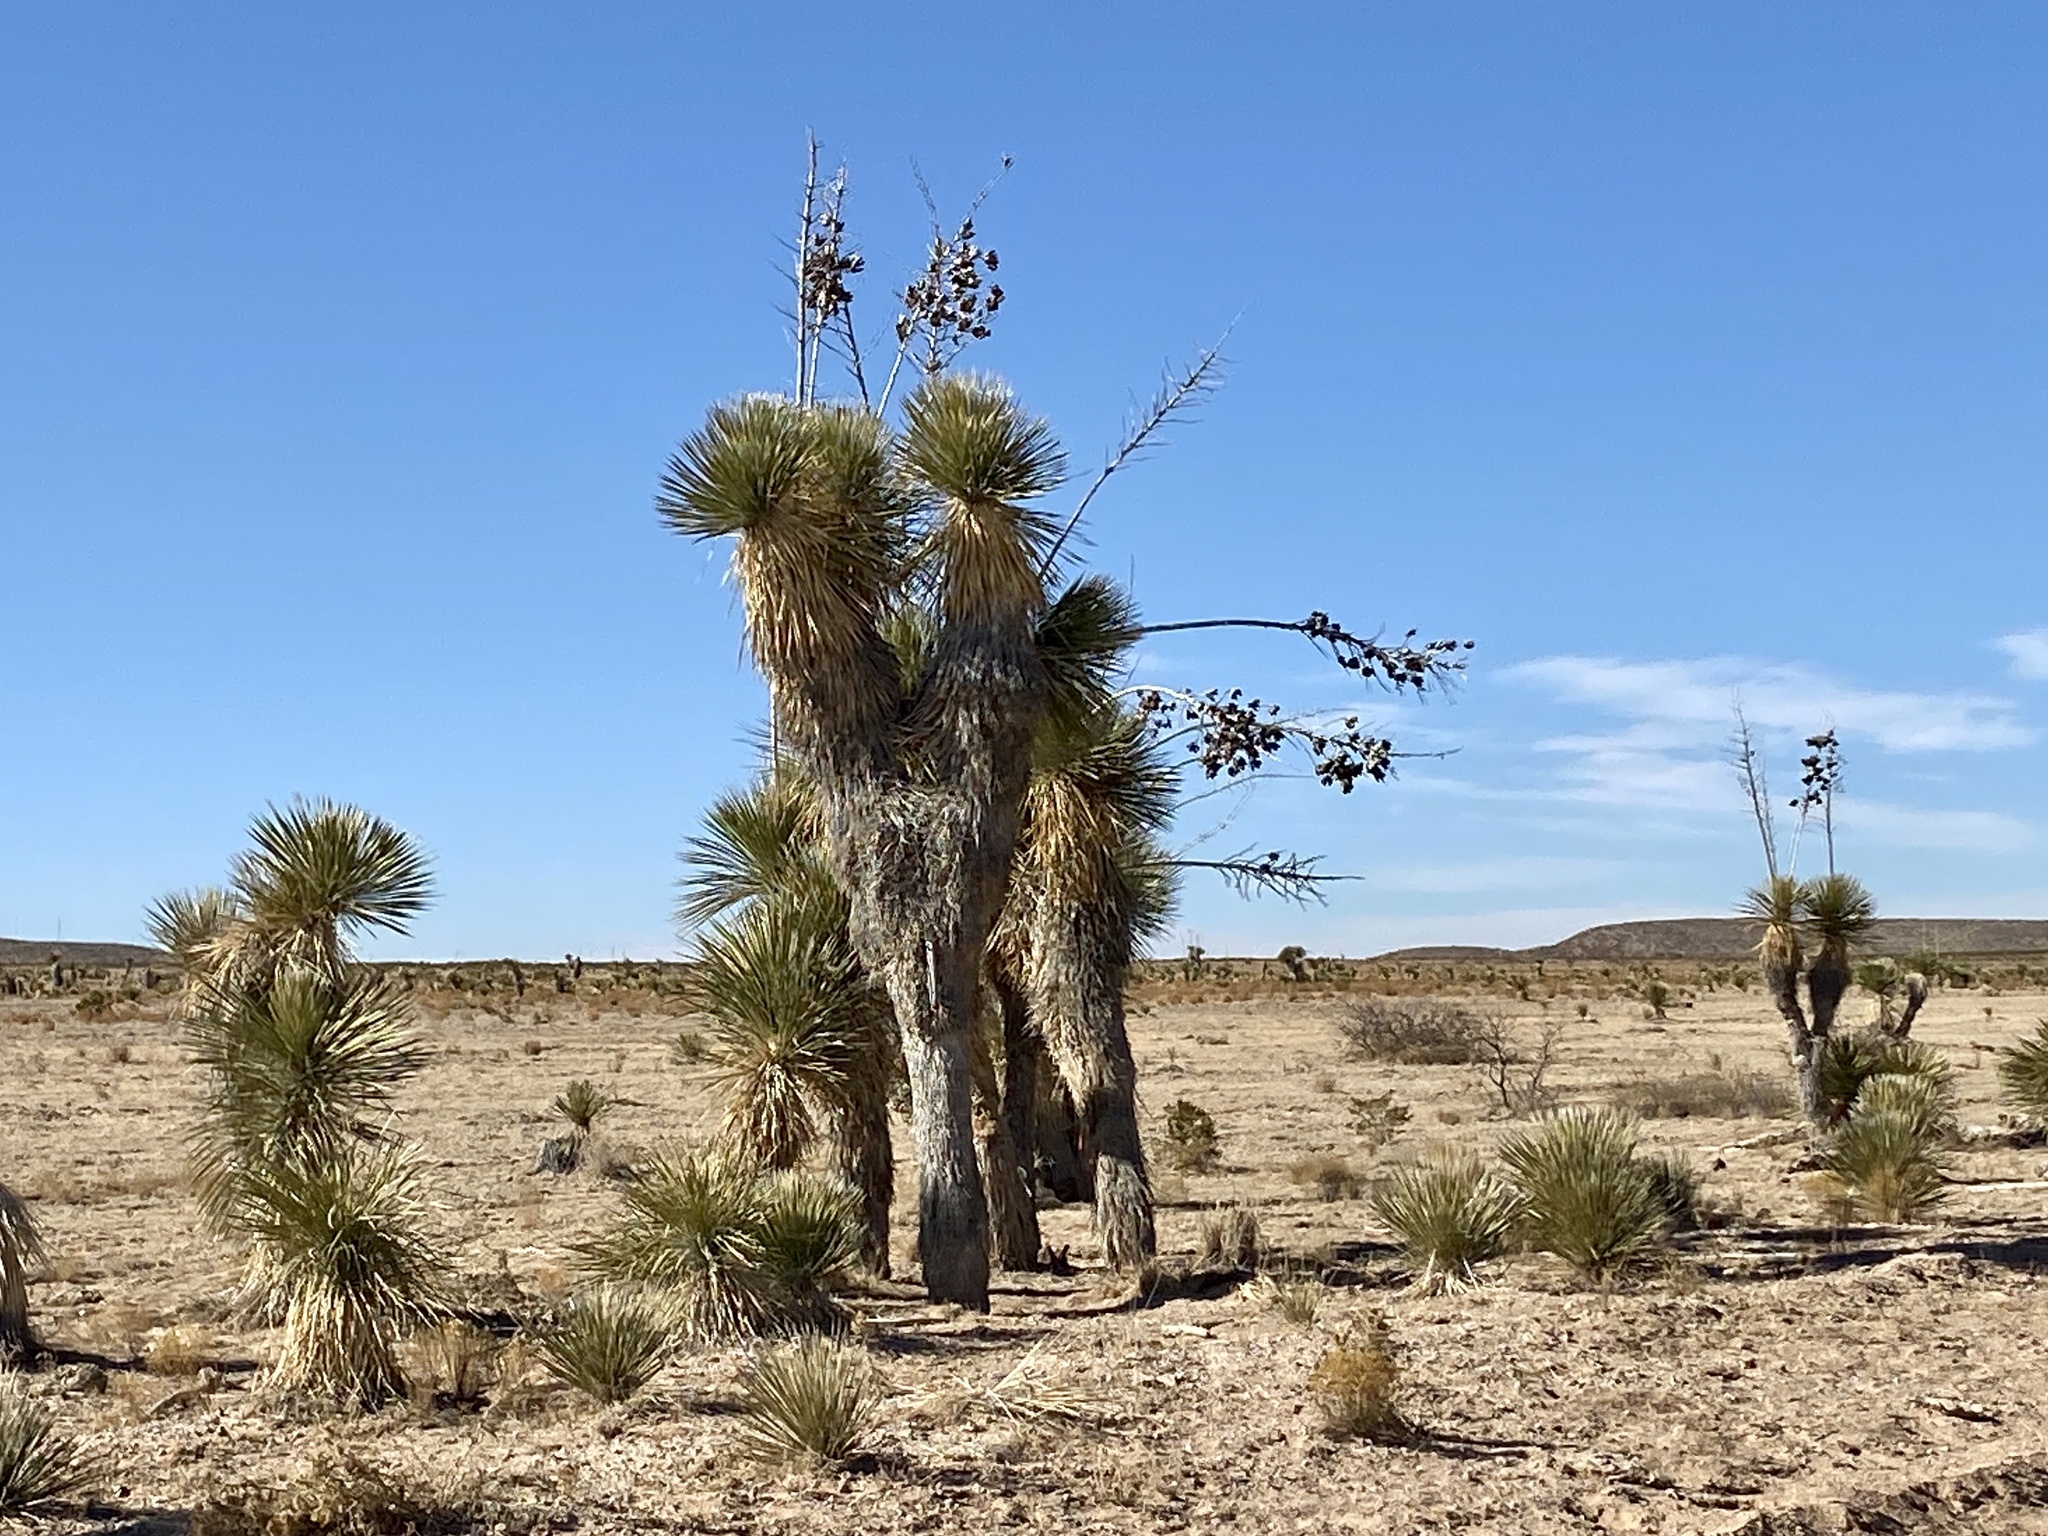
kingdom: Plantae
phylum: Tracheophyta
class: Liliopsida
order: Asparagales
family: Asparagaceae
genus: Yucca
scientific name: Yucca elata
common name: Palmella
